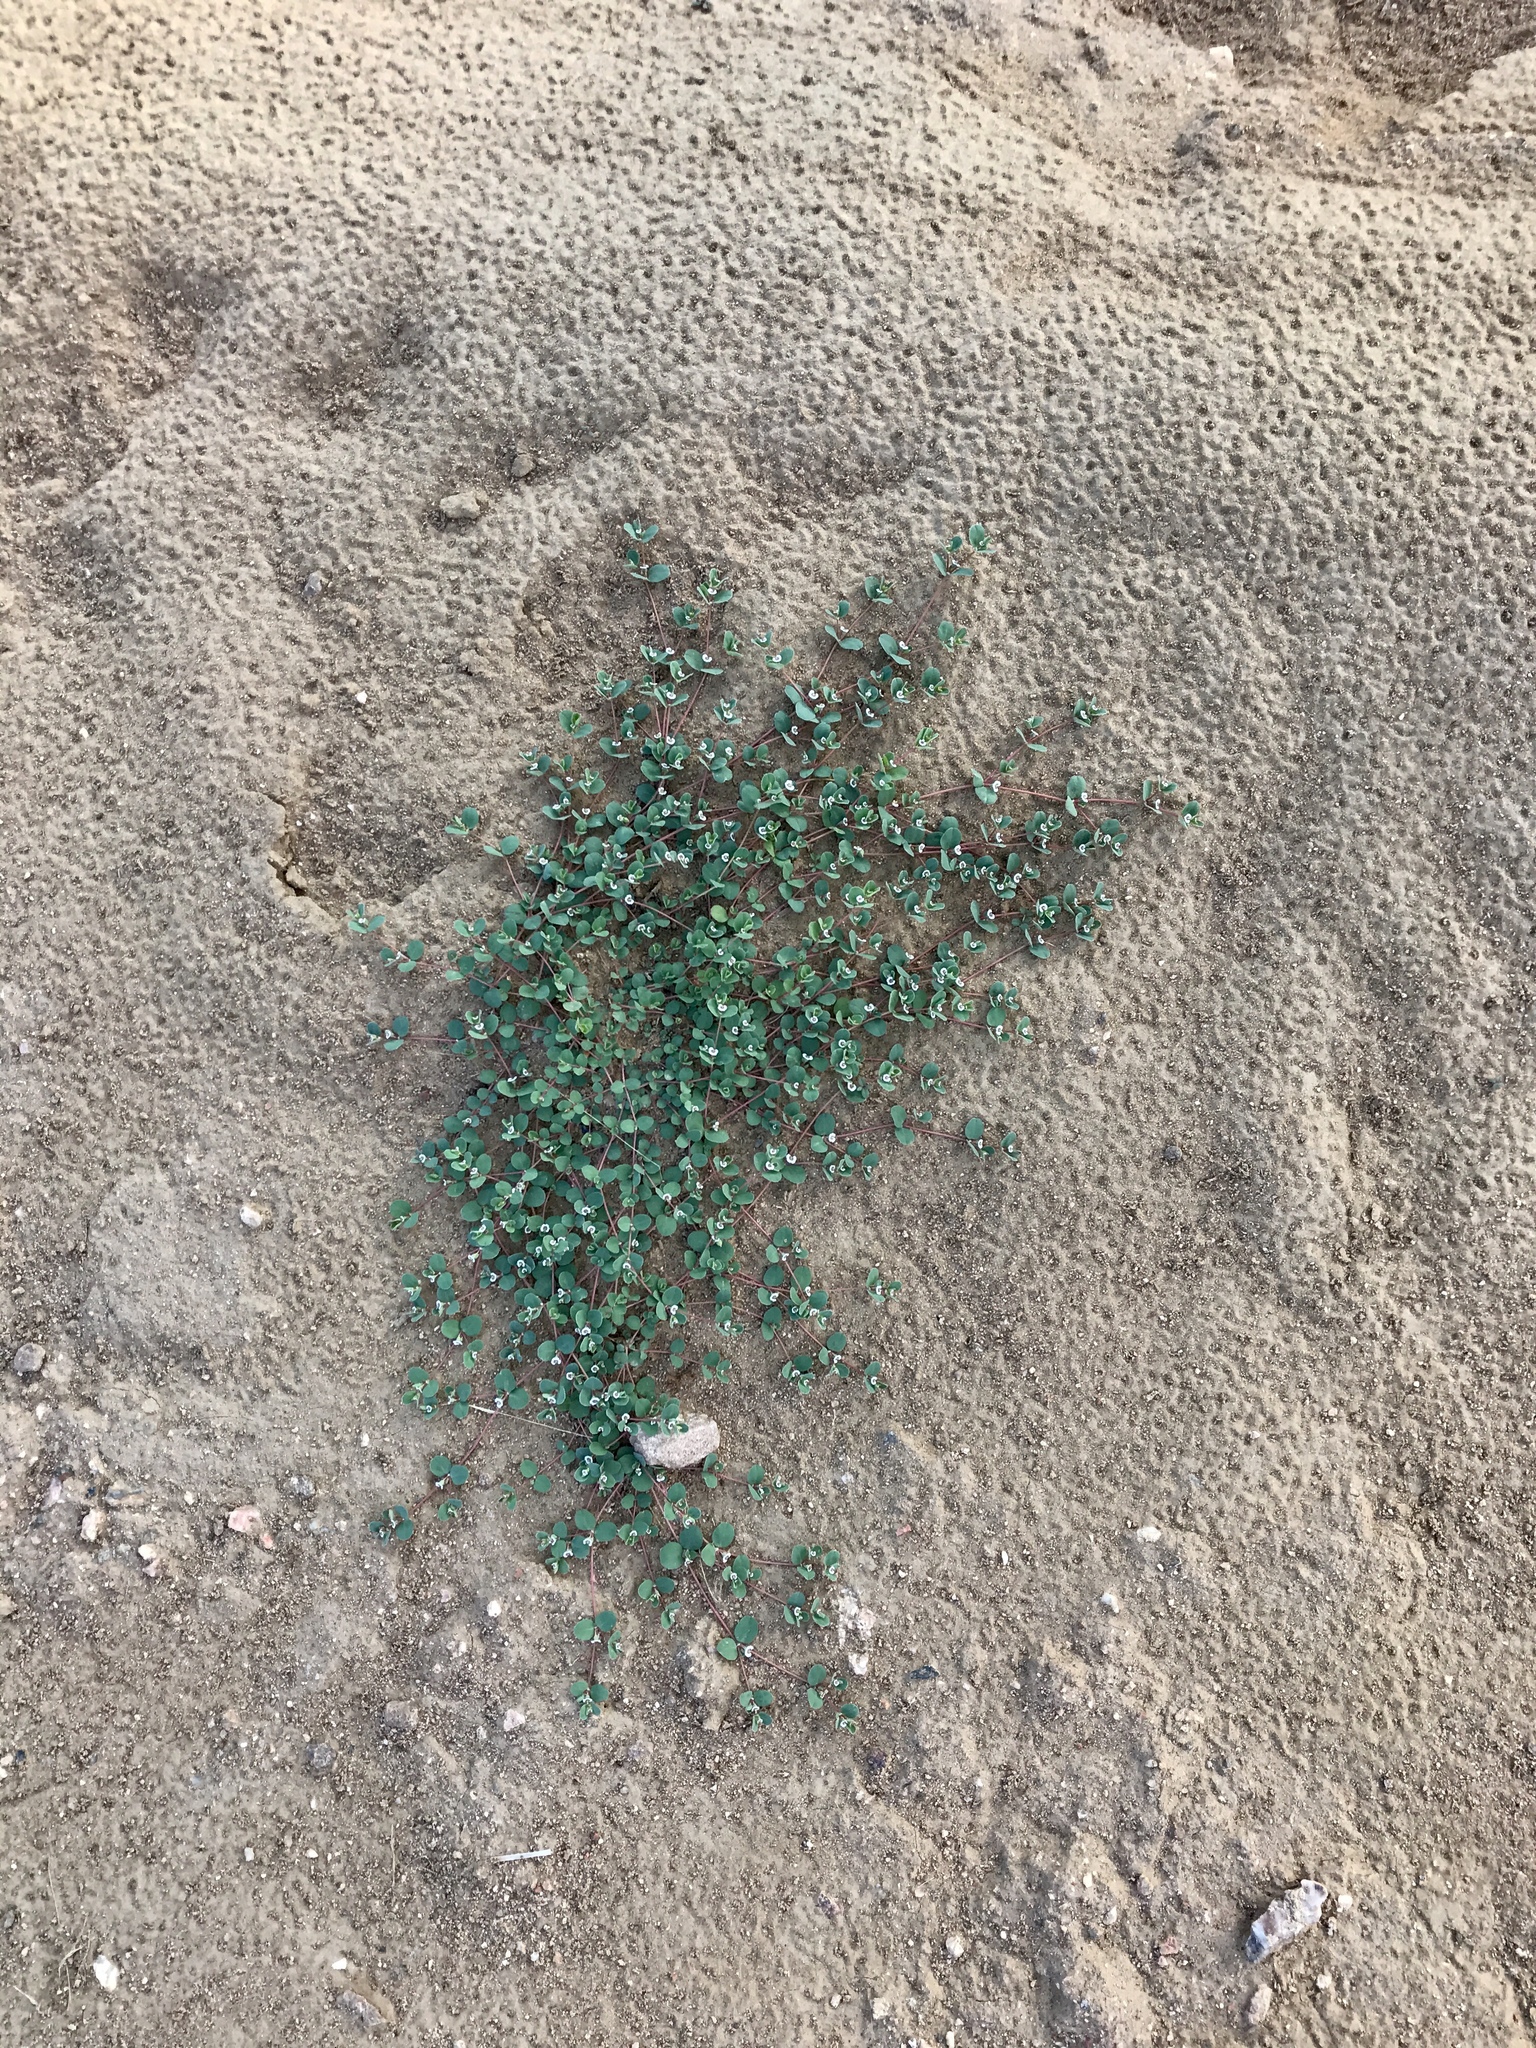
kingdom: Plantae
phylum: Tracheophyta
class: Magnoliopsida
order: Malpighiales
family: Euphorbiaceae
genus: Euphorbia
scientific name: Euphorbia albomarginata
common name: Whitemargin sandmat
